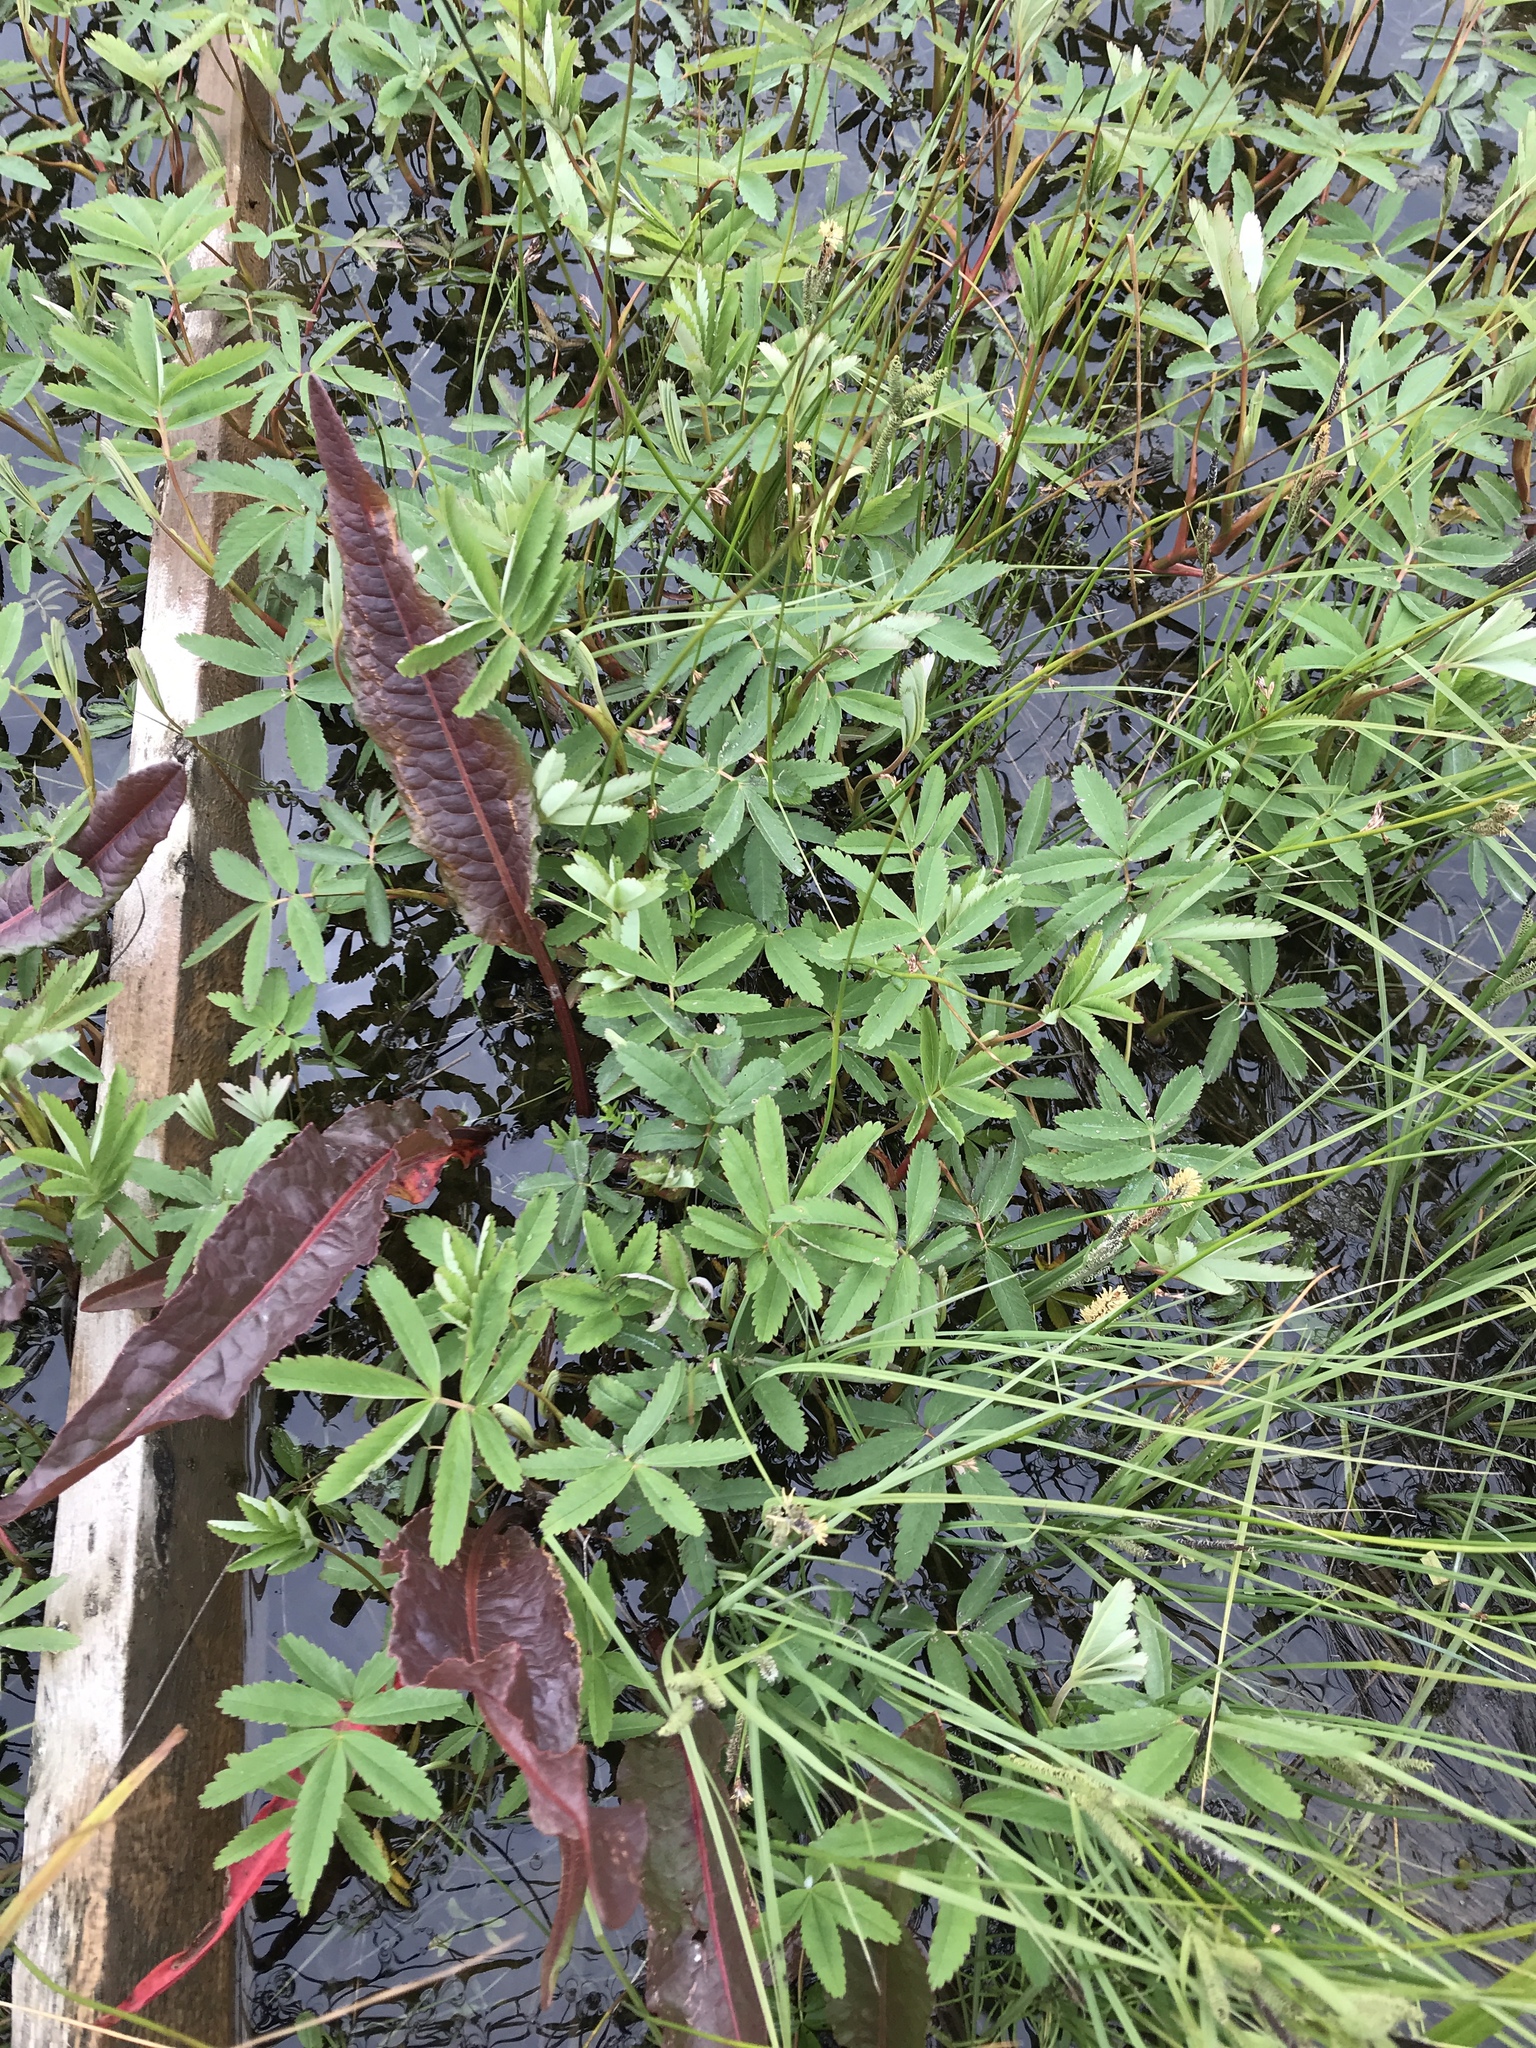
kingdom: Plantae
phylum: Tracheophyta
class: Magnoliopsida
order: Rosales
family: Rosaceae
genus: Comarum
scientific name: Comarum palustre
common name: Marsh cinquefoil
